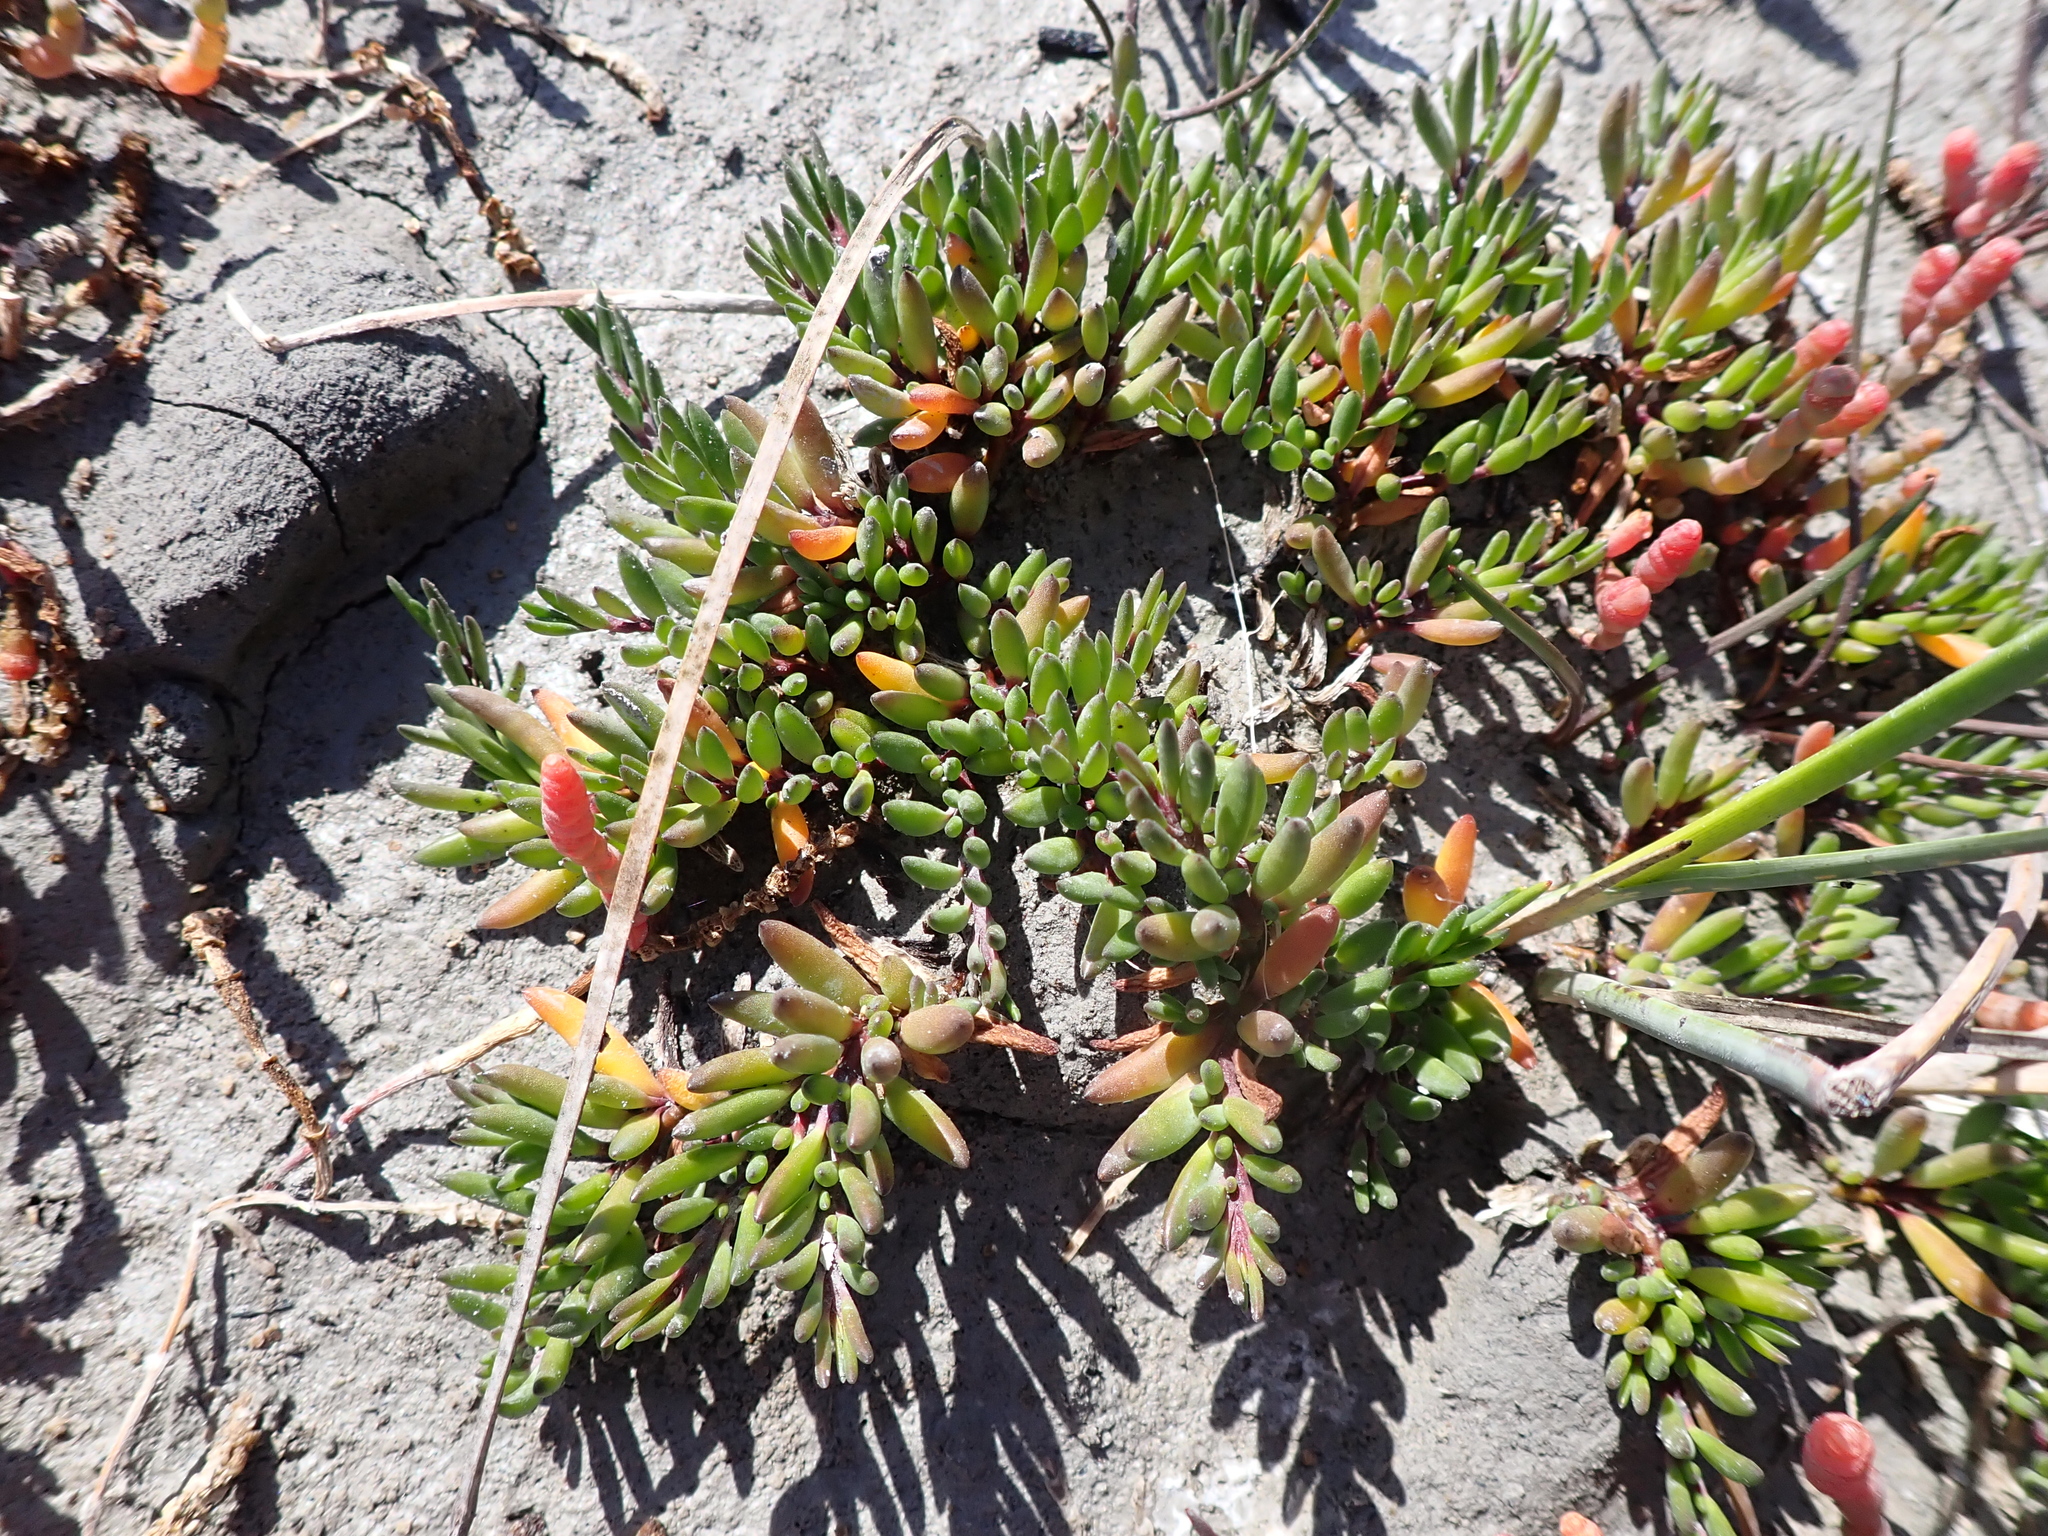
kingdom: Plantae
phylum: Tracheophyta
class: Magnoliopsida
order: Solanales
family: Convolvulaceae
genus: Wilsonia
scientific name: Wilsonia backhousei
